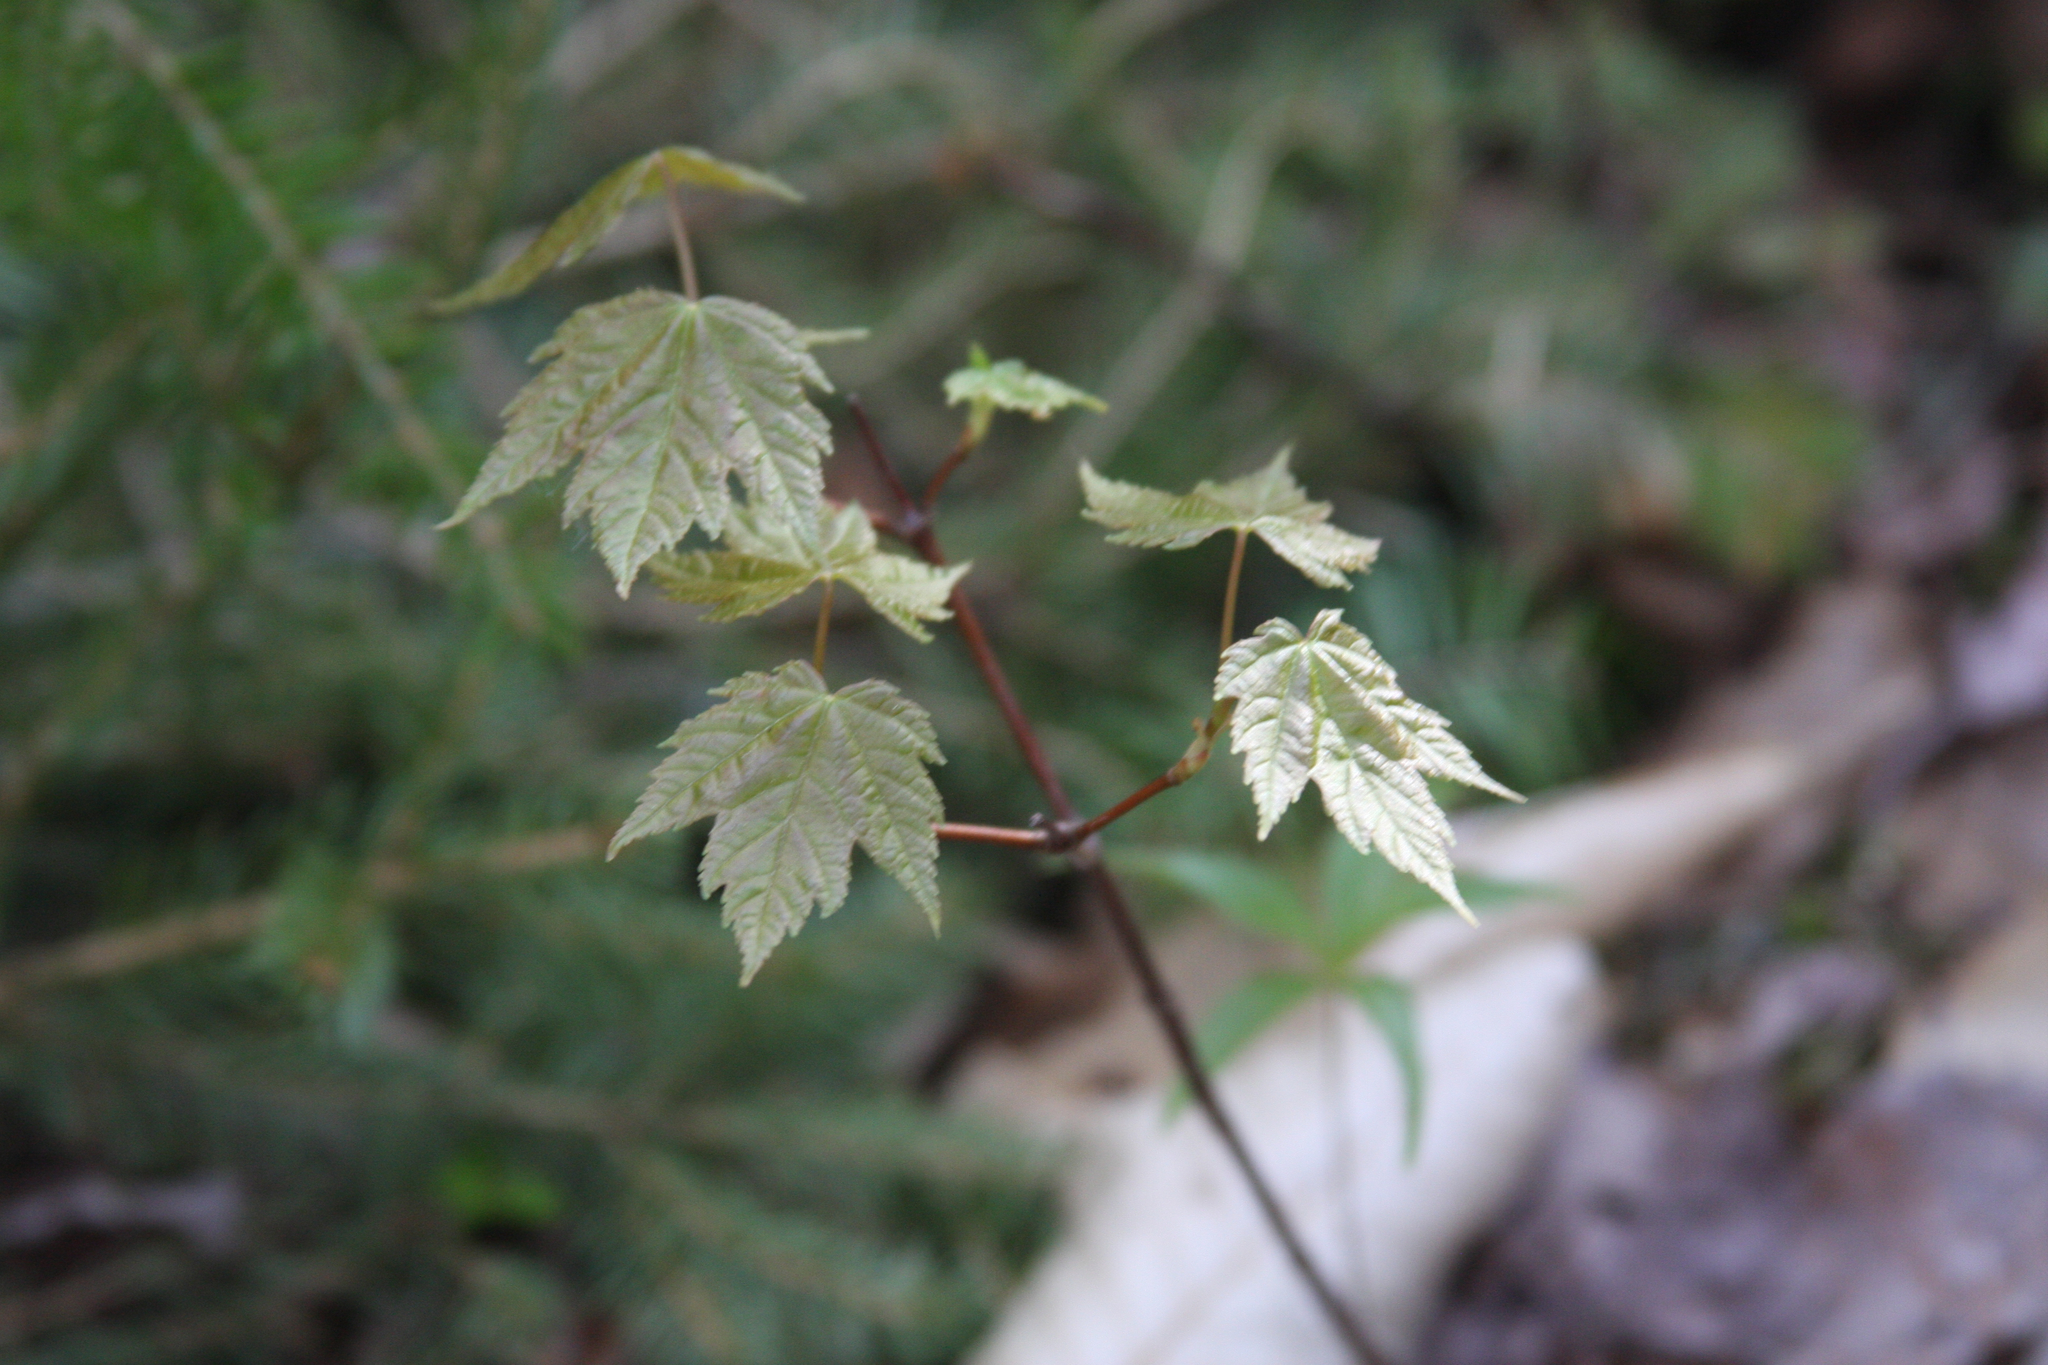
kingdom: Plantae
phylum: Tracheophyta
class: Magnoliopsida
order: Sapindales
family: Sapindaceae
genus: Acer
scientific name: Acer rubrum
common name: Red maple
